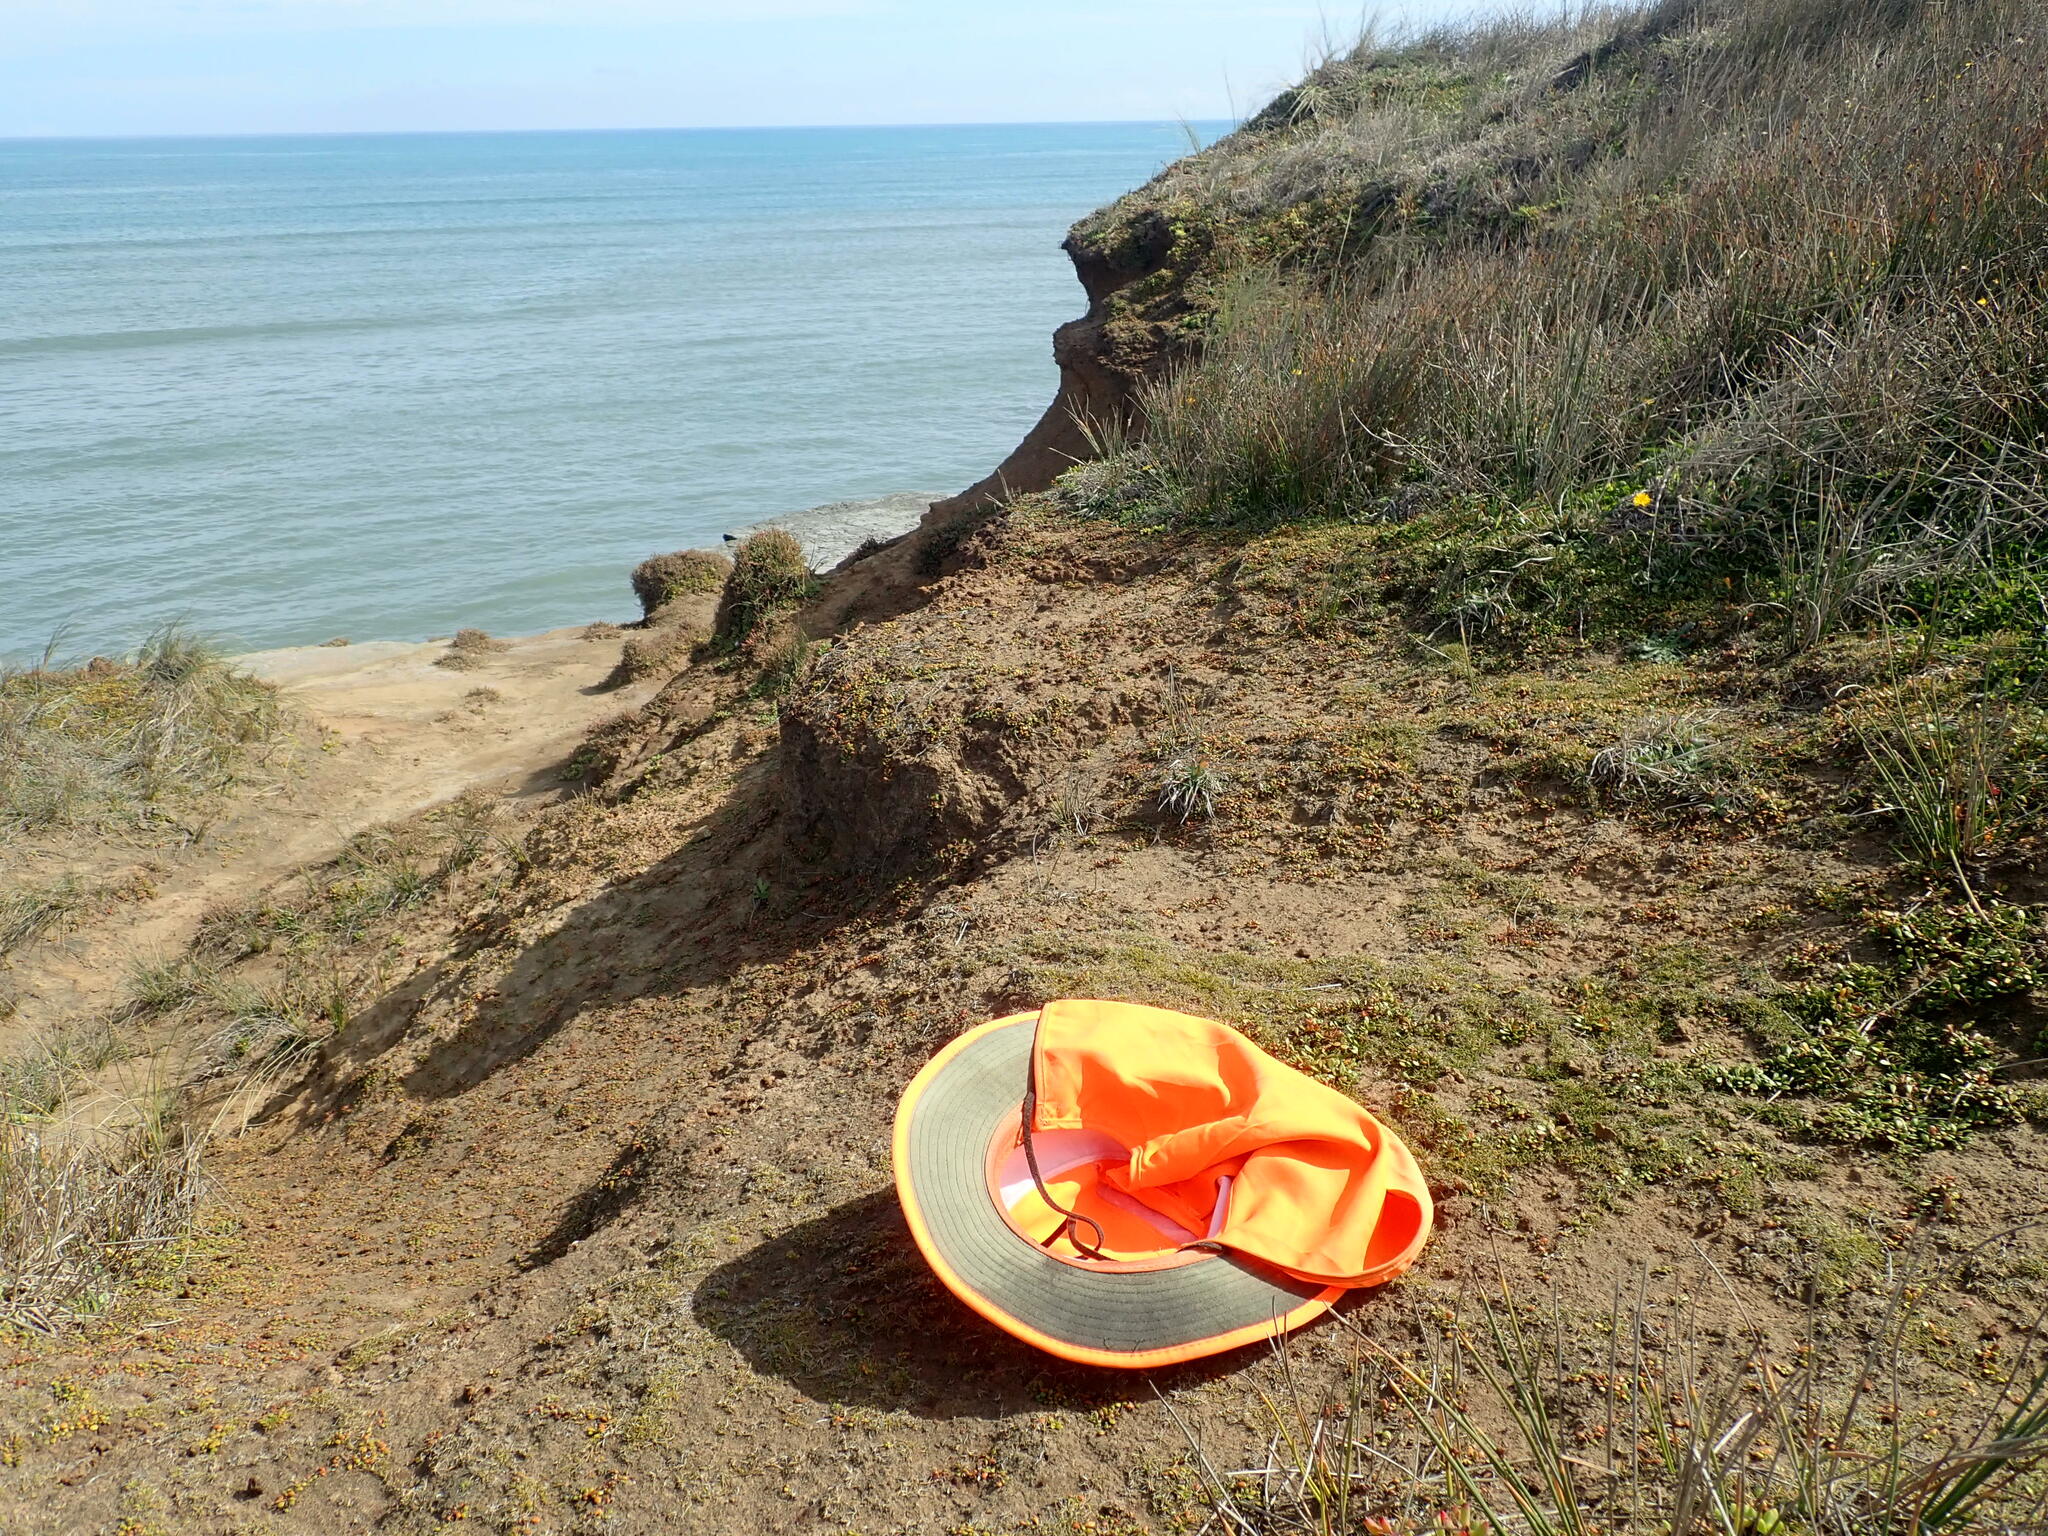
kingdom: Plantae
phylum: Tracheophyta
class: Magnoliopsida
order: Caryophyllales
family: Caryophyllaceae
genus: Colobanthus
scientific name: Colobanthus muelleri
